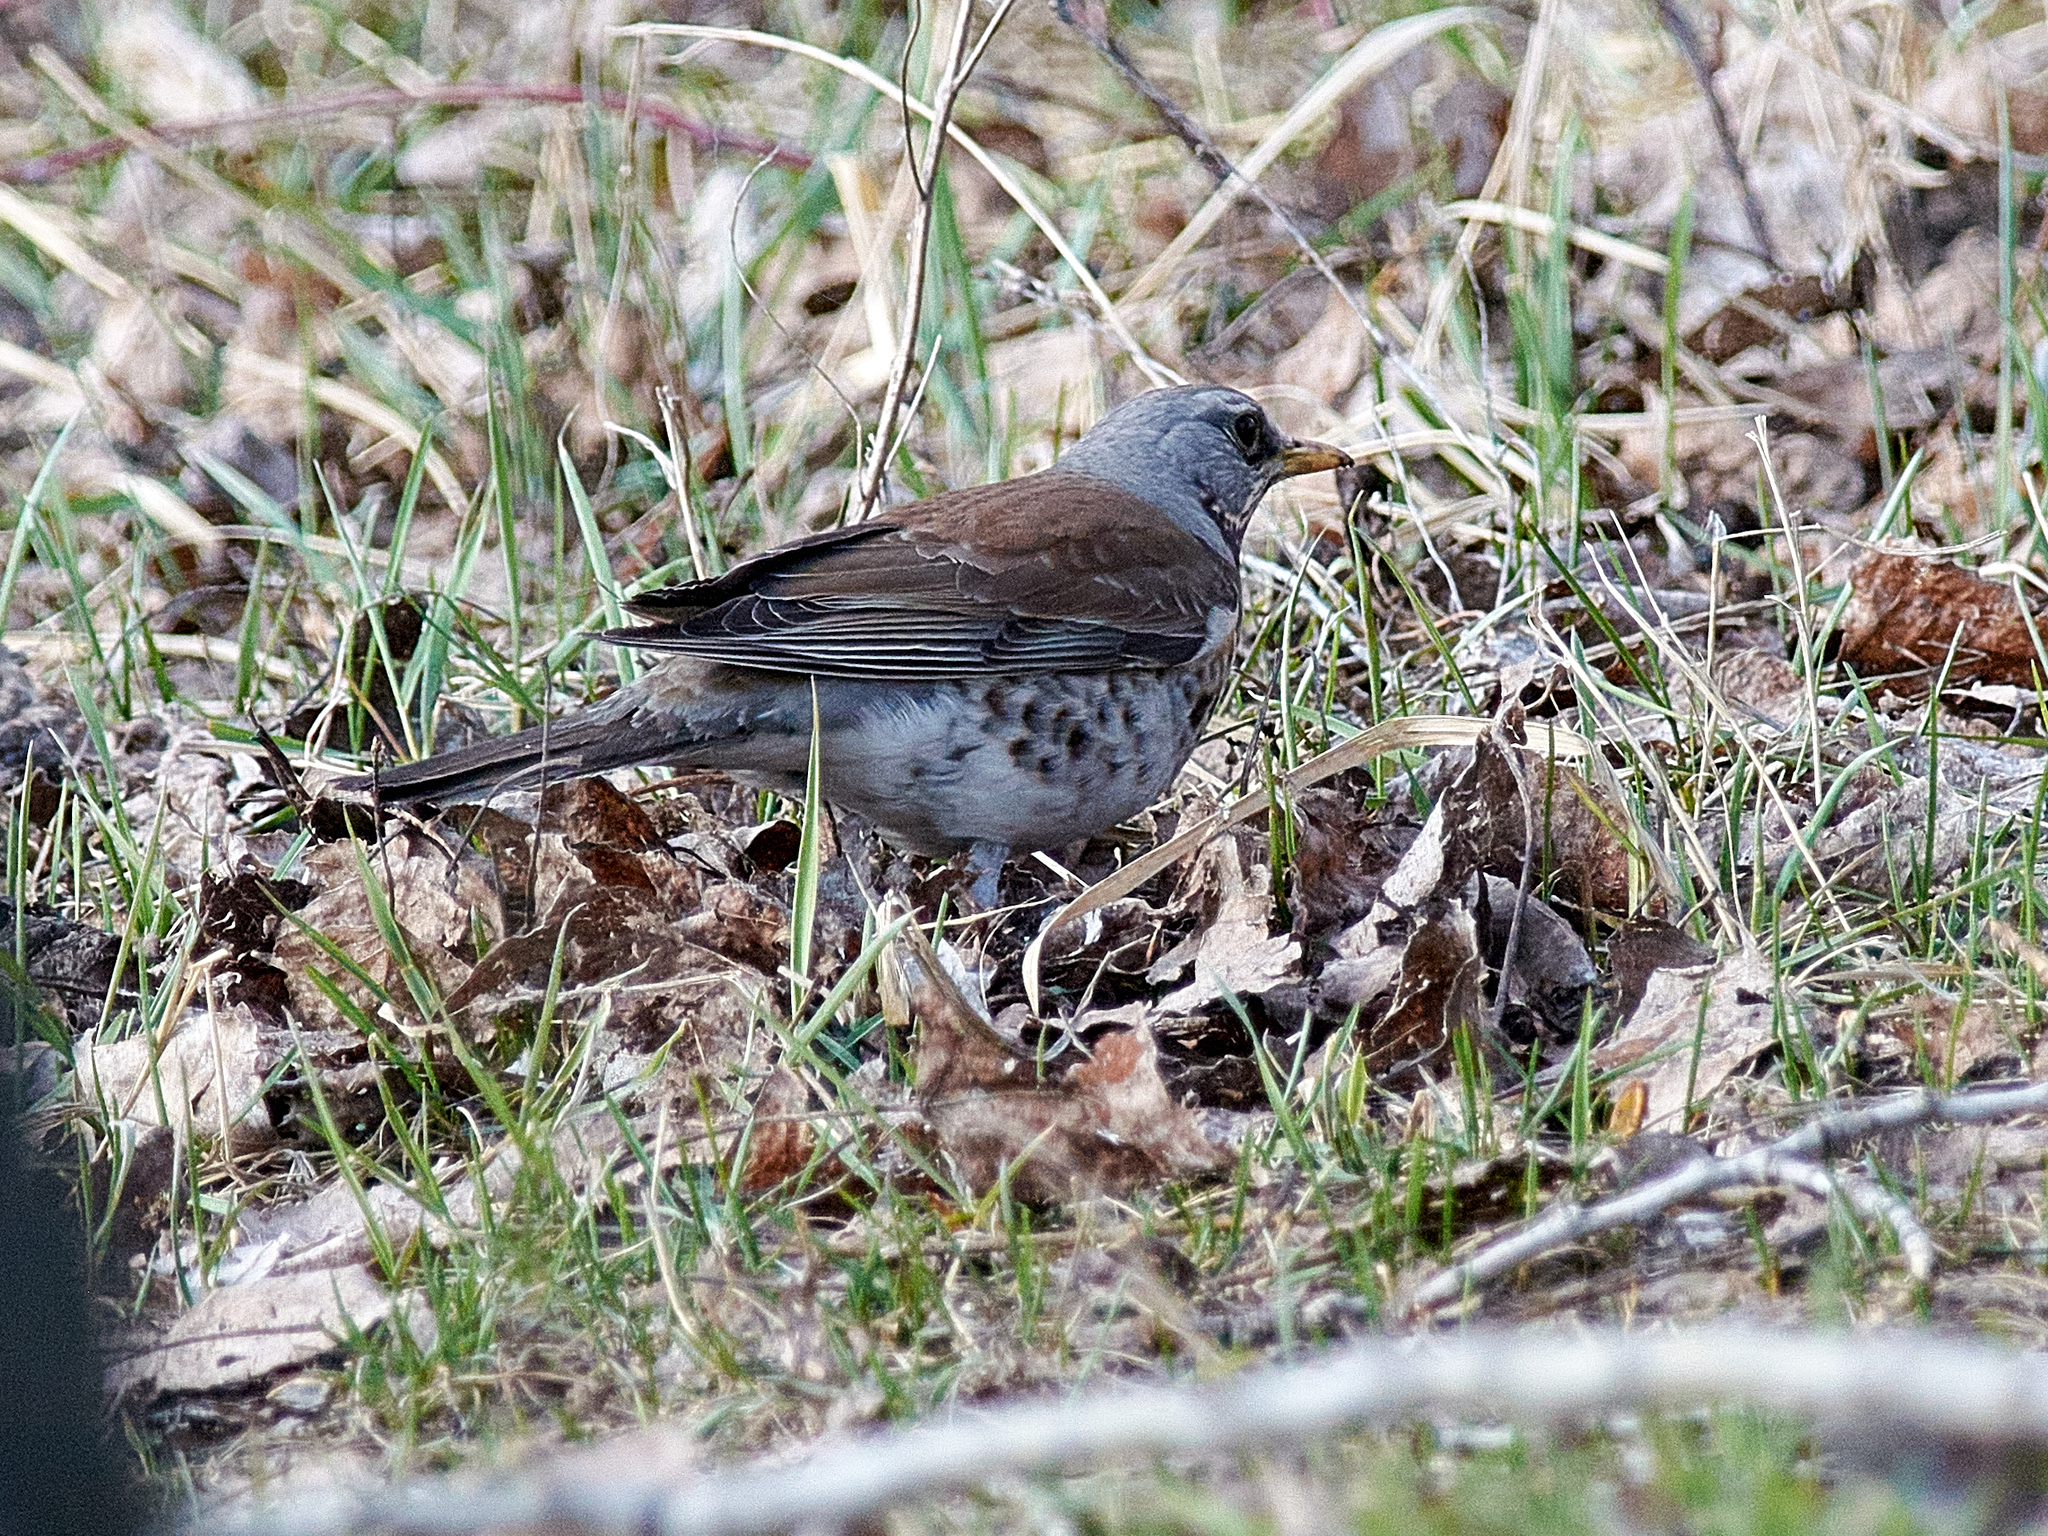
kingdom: Animalia
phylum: Chordata
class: Aves
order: Passeriformes
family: Turdidae
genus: Turdus
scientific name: Turdus pilaris
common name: Fieldfare
